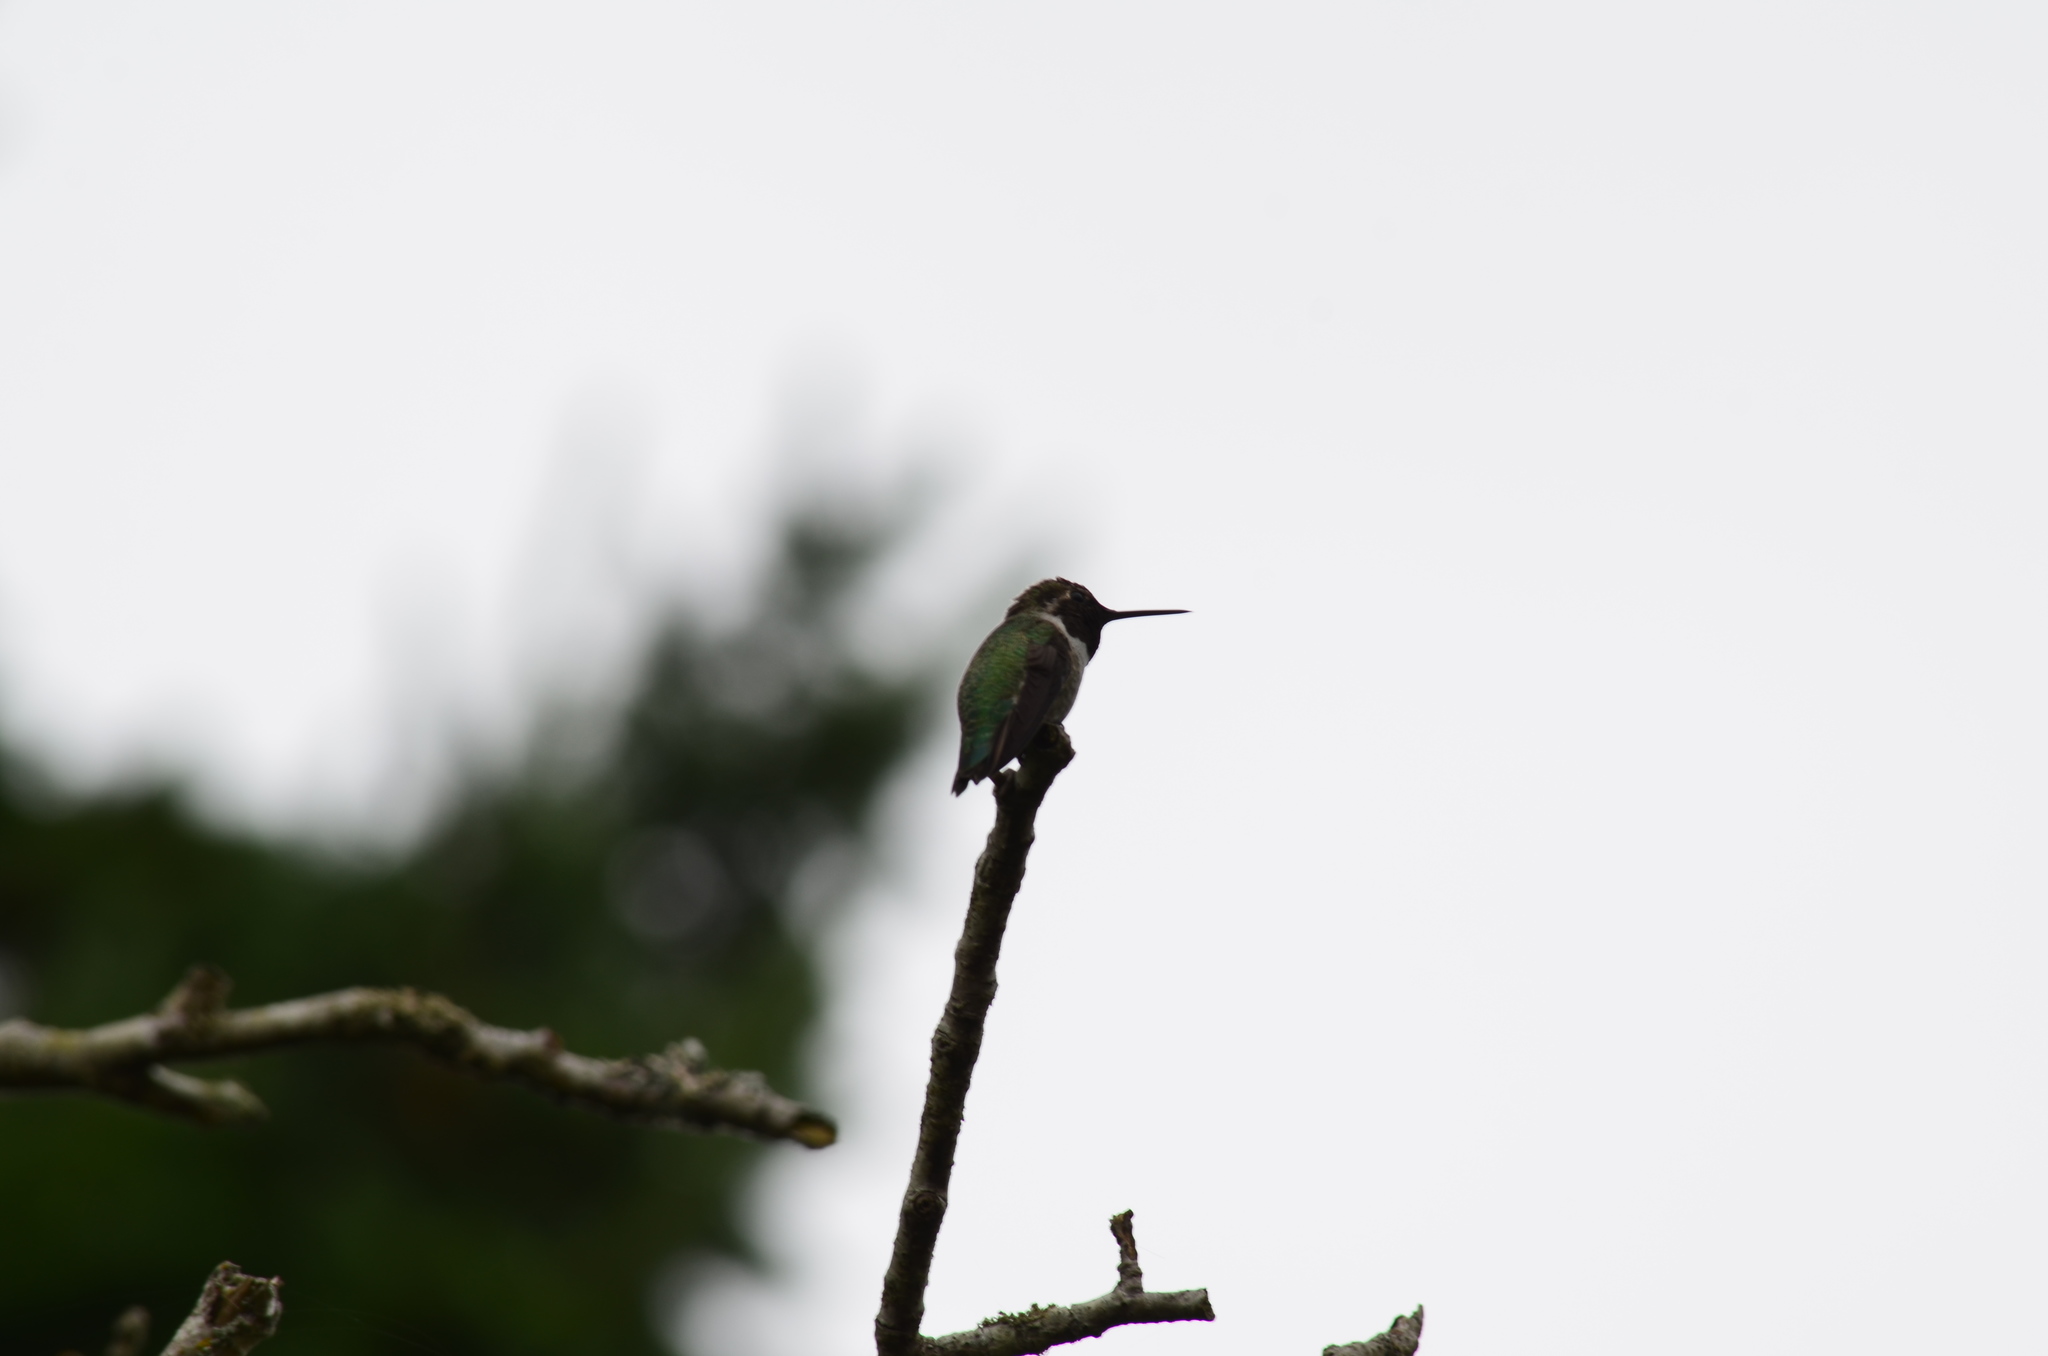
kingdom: Animalia
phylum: Chordata
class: Aves
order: Apodiformes
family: Trochilidae
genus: Calypte
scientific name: Calypte anna
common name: Anna's hummingbird
